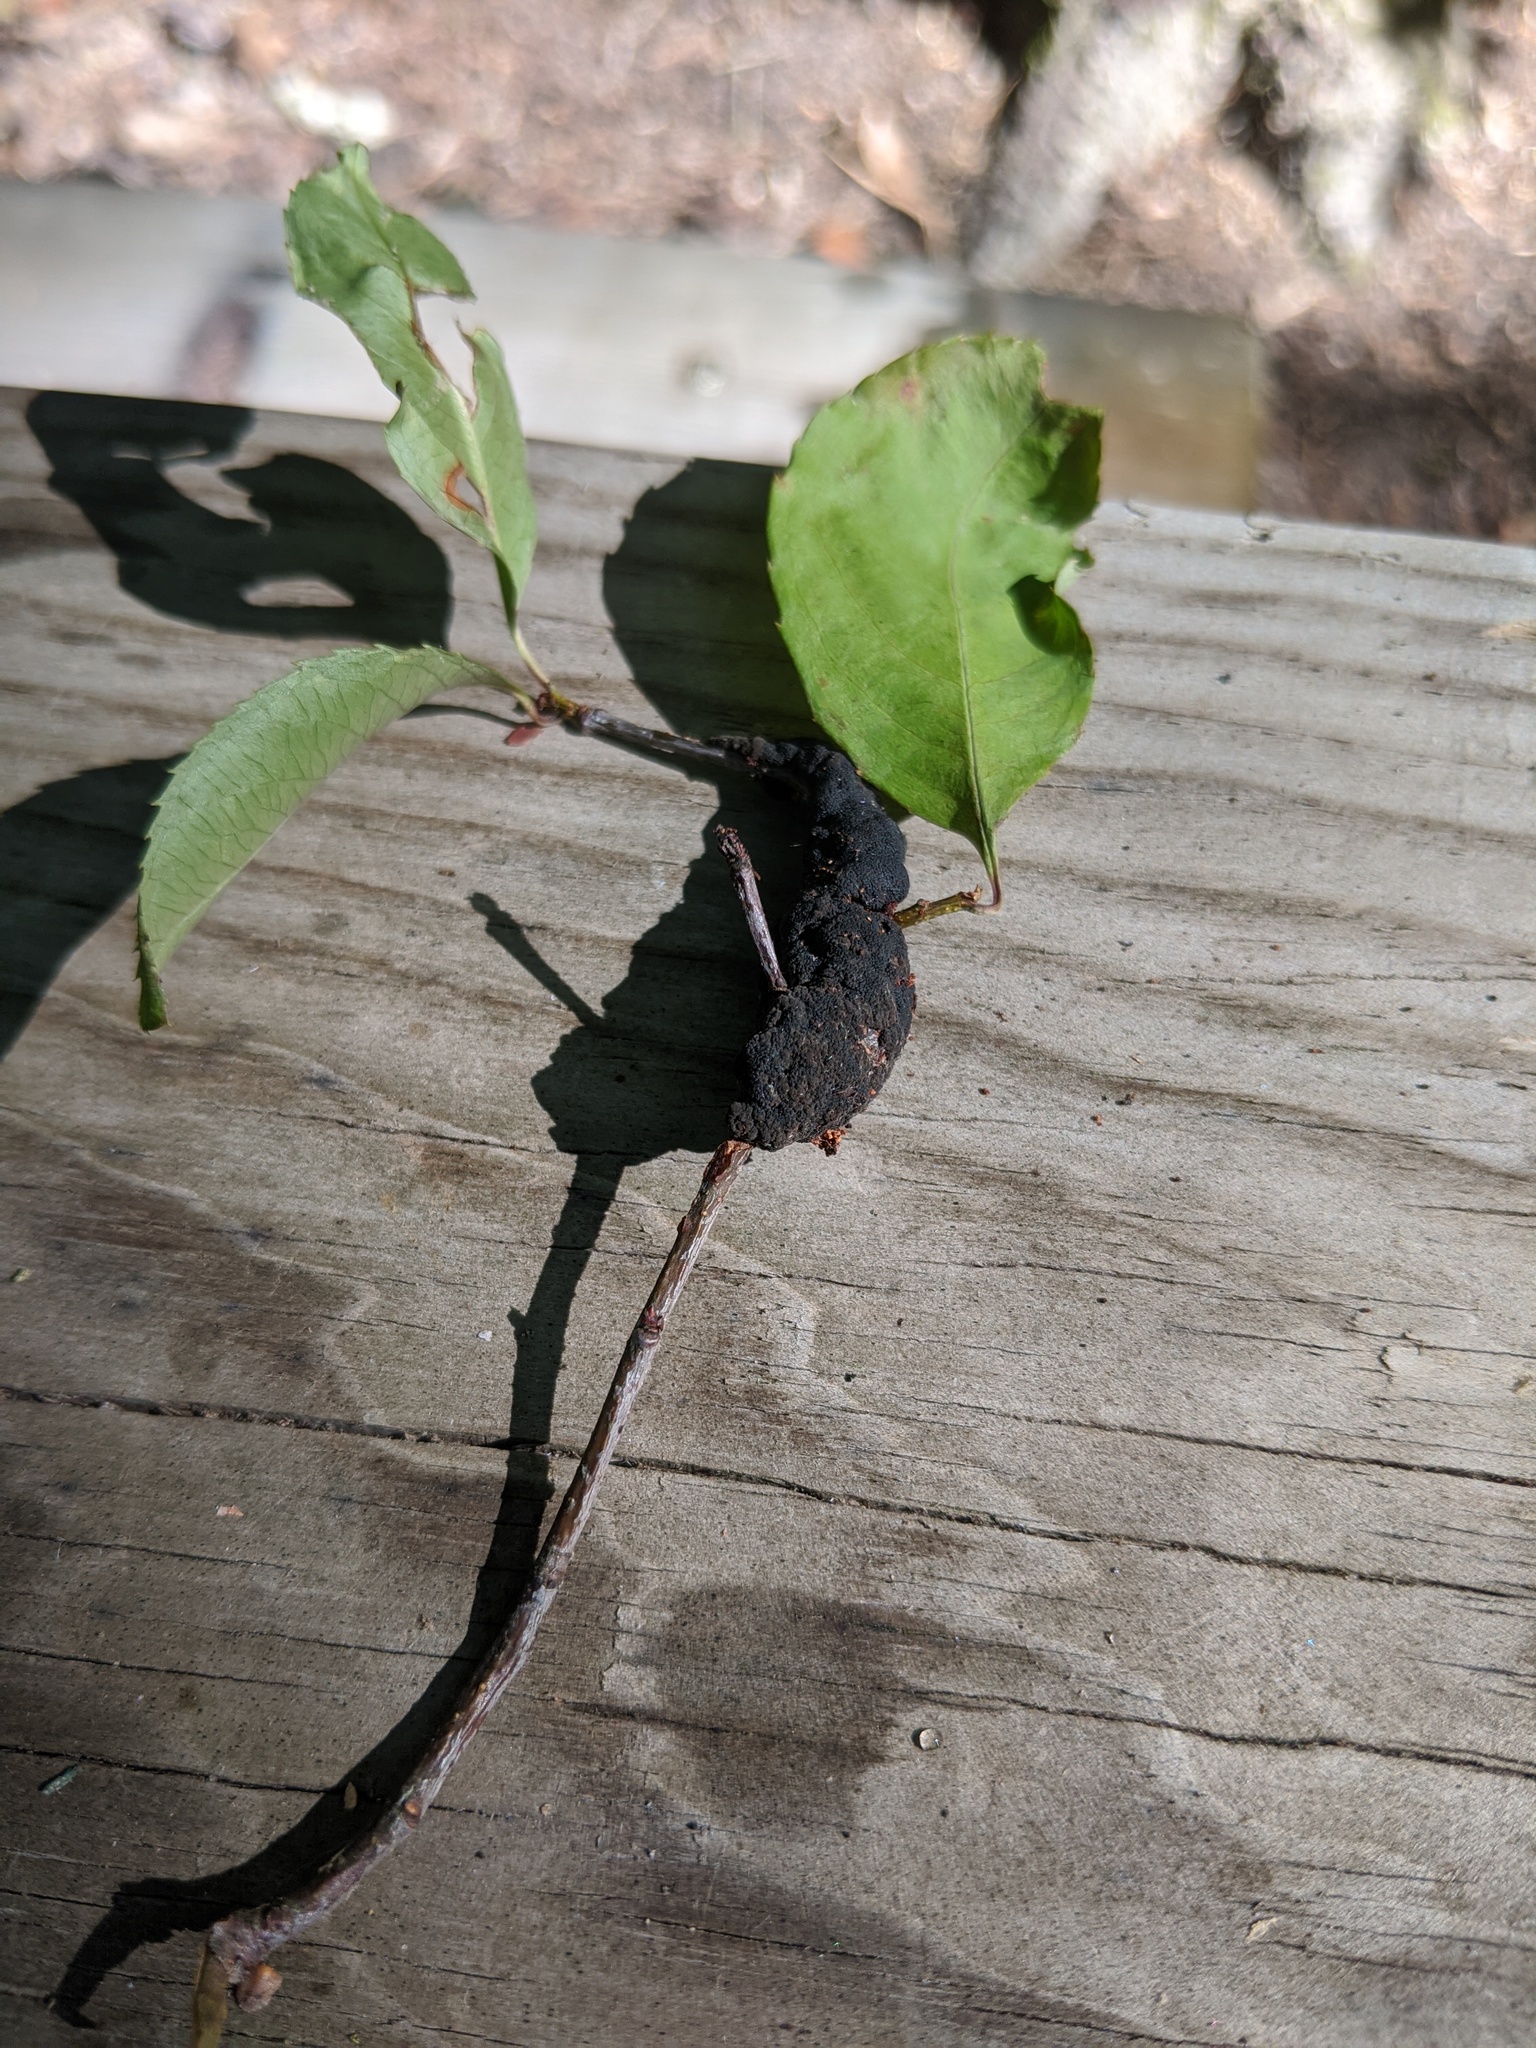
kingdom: Fungi
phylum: Ascomycota
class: Dothideomycetes
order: Venturiales
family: Venturiaceae
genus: Apiosporina
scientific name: Apiosporina morbosa
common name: Black knot
